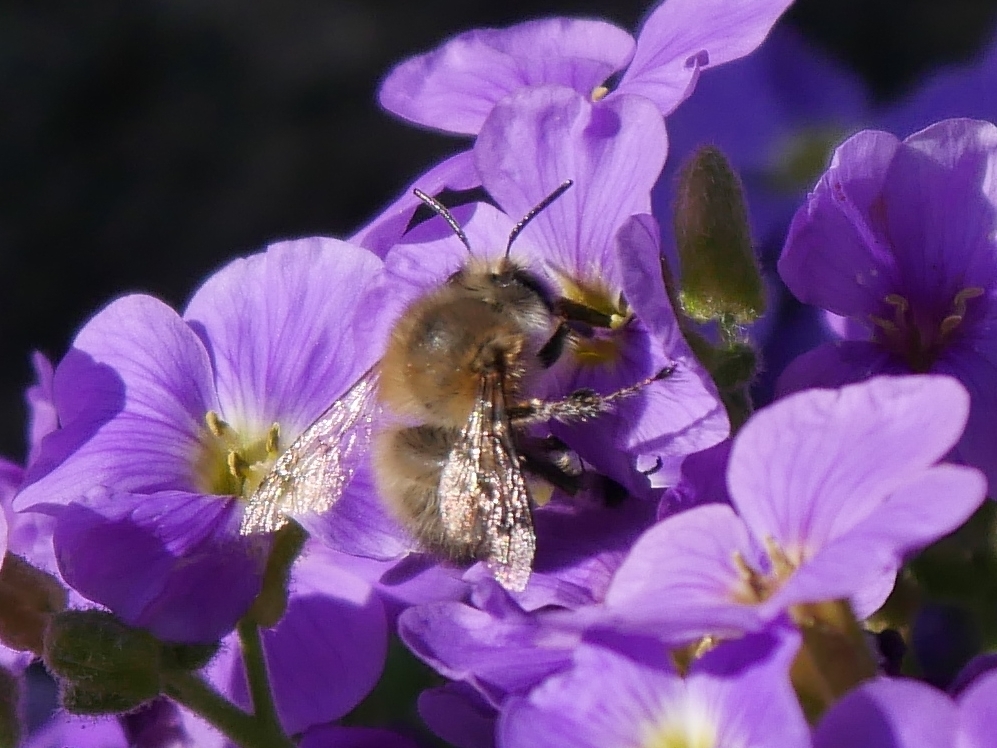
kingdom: Animalia
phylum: Arthropoda
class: Insecta
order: Hymenoptera
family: Apidae
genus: Anthophora
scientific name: Anthophora plumipes
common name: Hairy-footed flower bee
